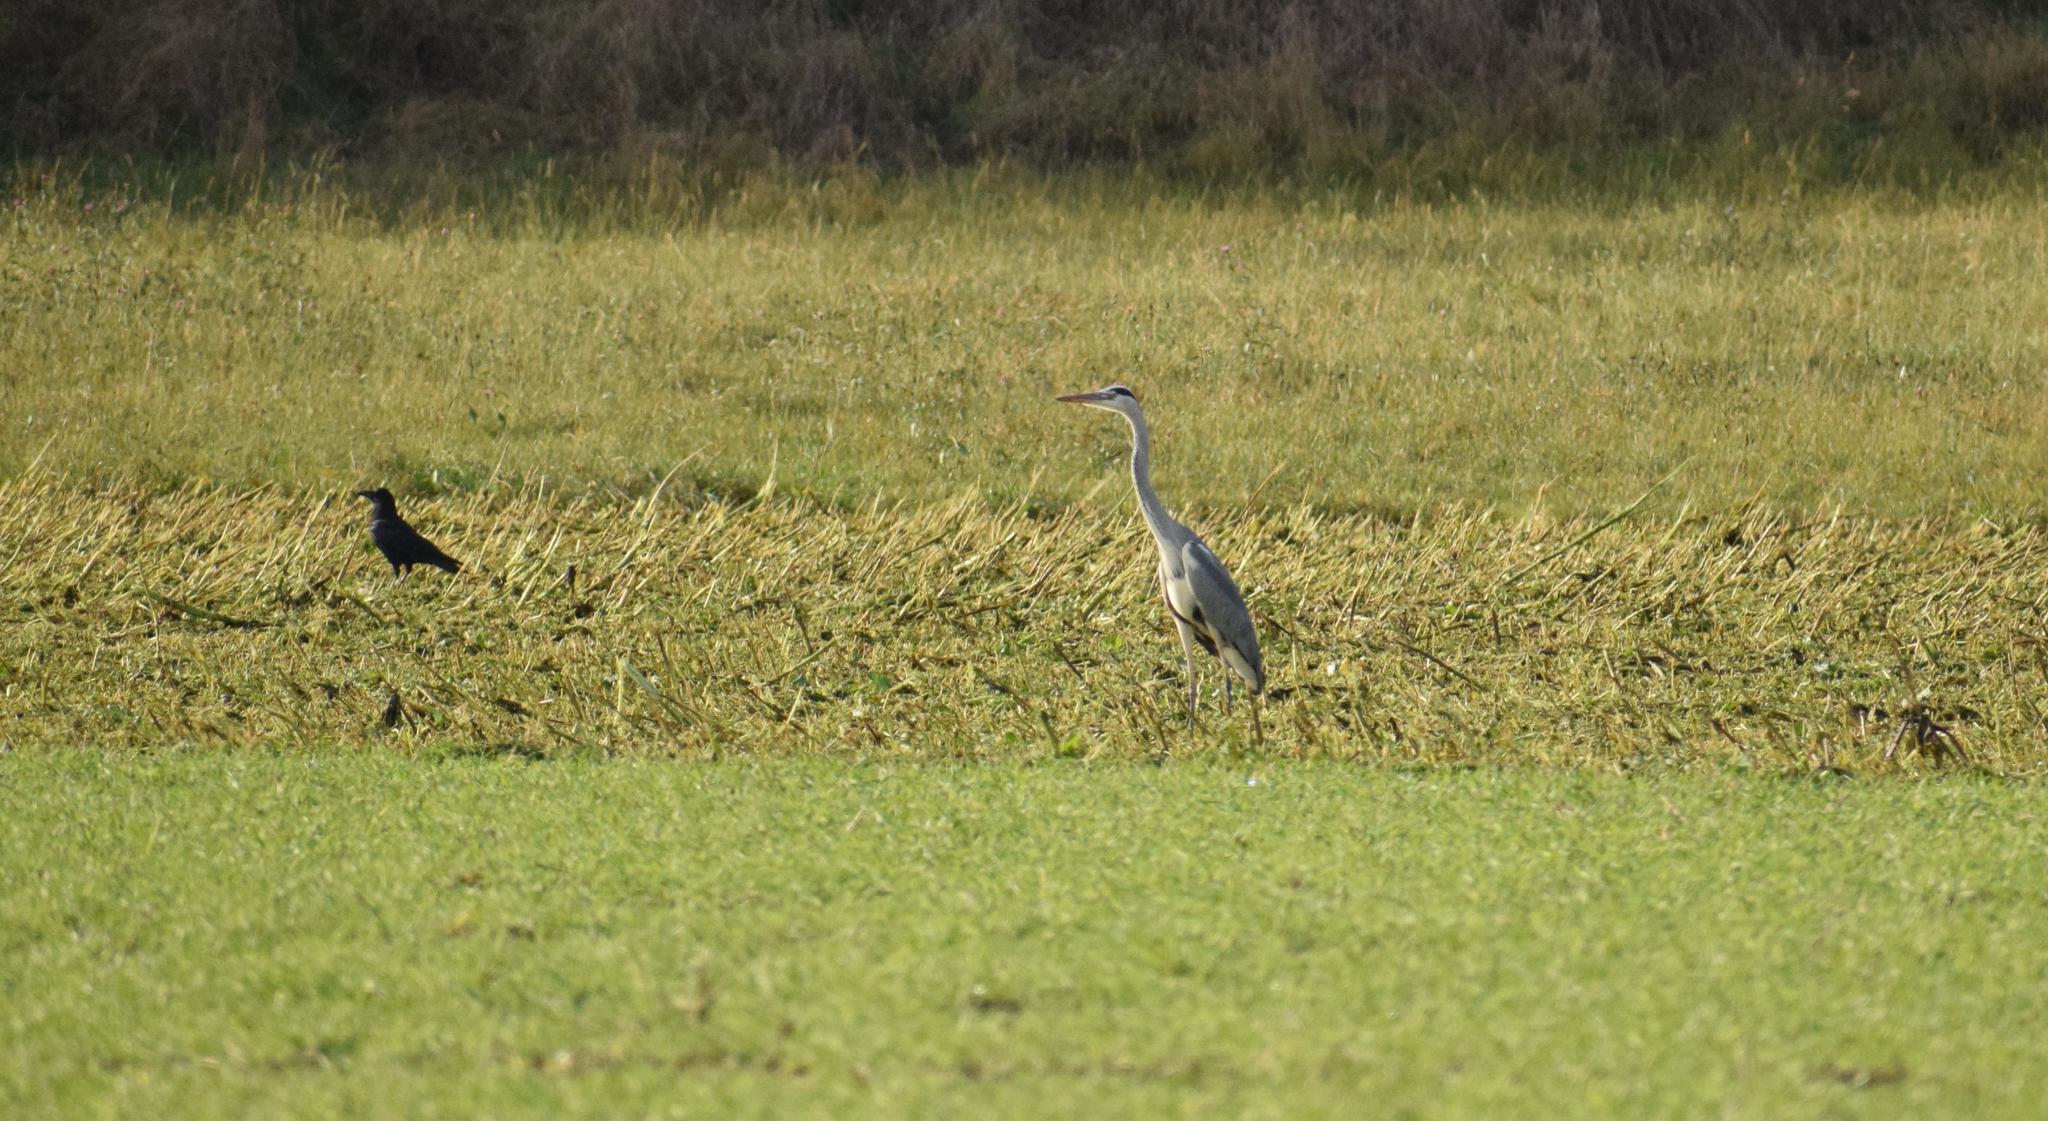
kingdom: Animalia
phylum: Chordata
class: Aves
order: Pelecaniformes
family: Ardeidae
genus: Ardea
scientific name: Ardea cinerea
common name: Grey heron
